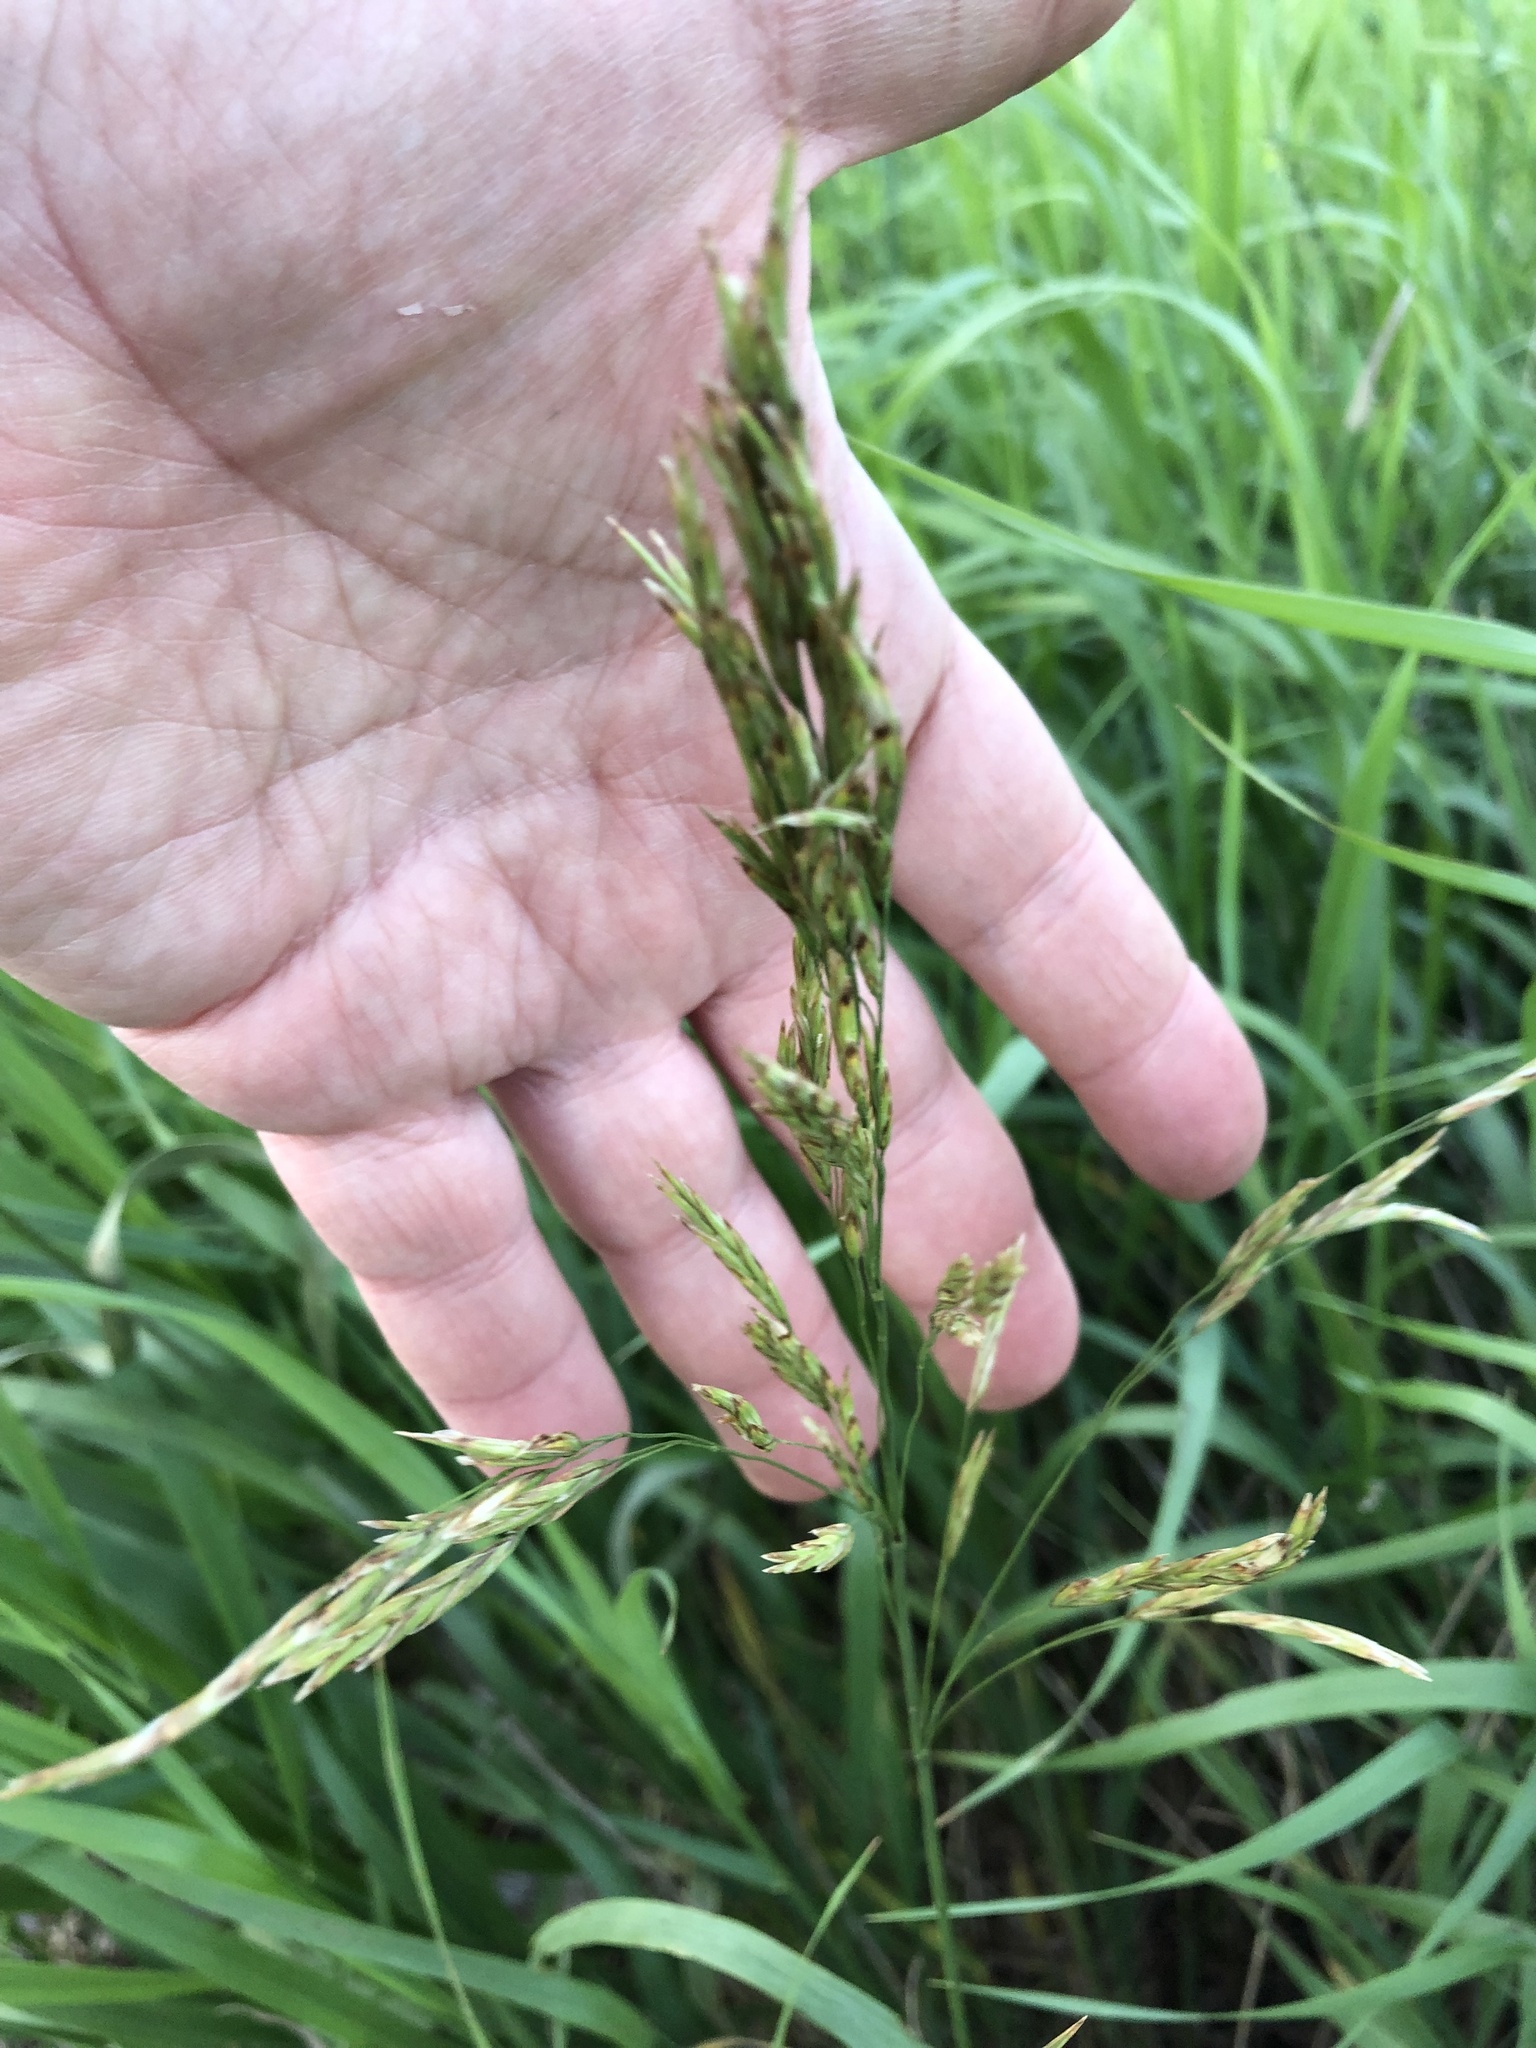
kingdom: Plantae
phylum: Tracheophyta
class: Liliopsida
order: Poales
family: Poaceae
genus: Calamagrostis
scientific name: Calamagrostis canadensis
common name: Canada bluejoint
